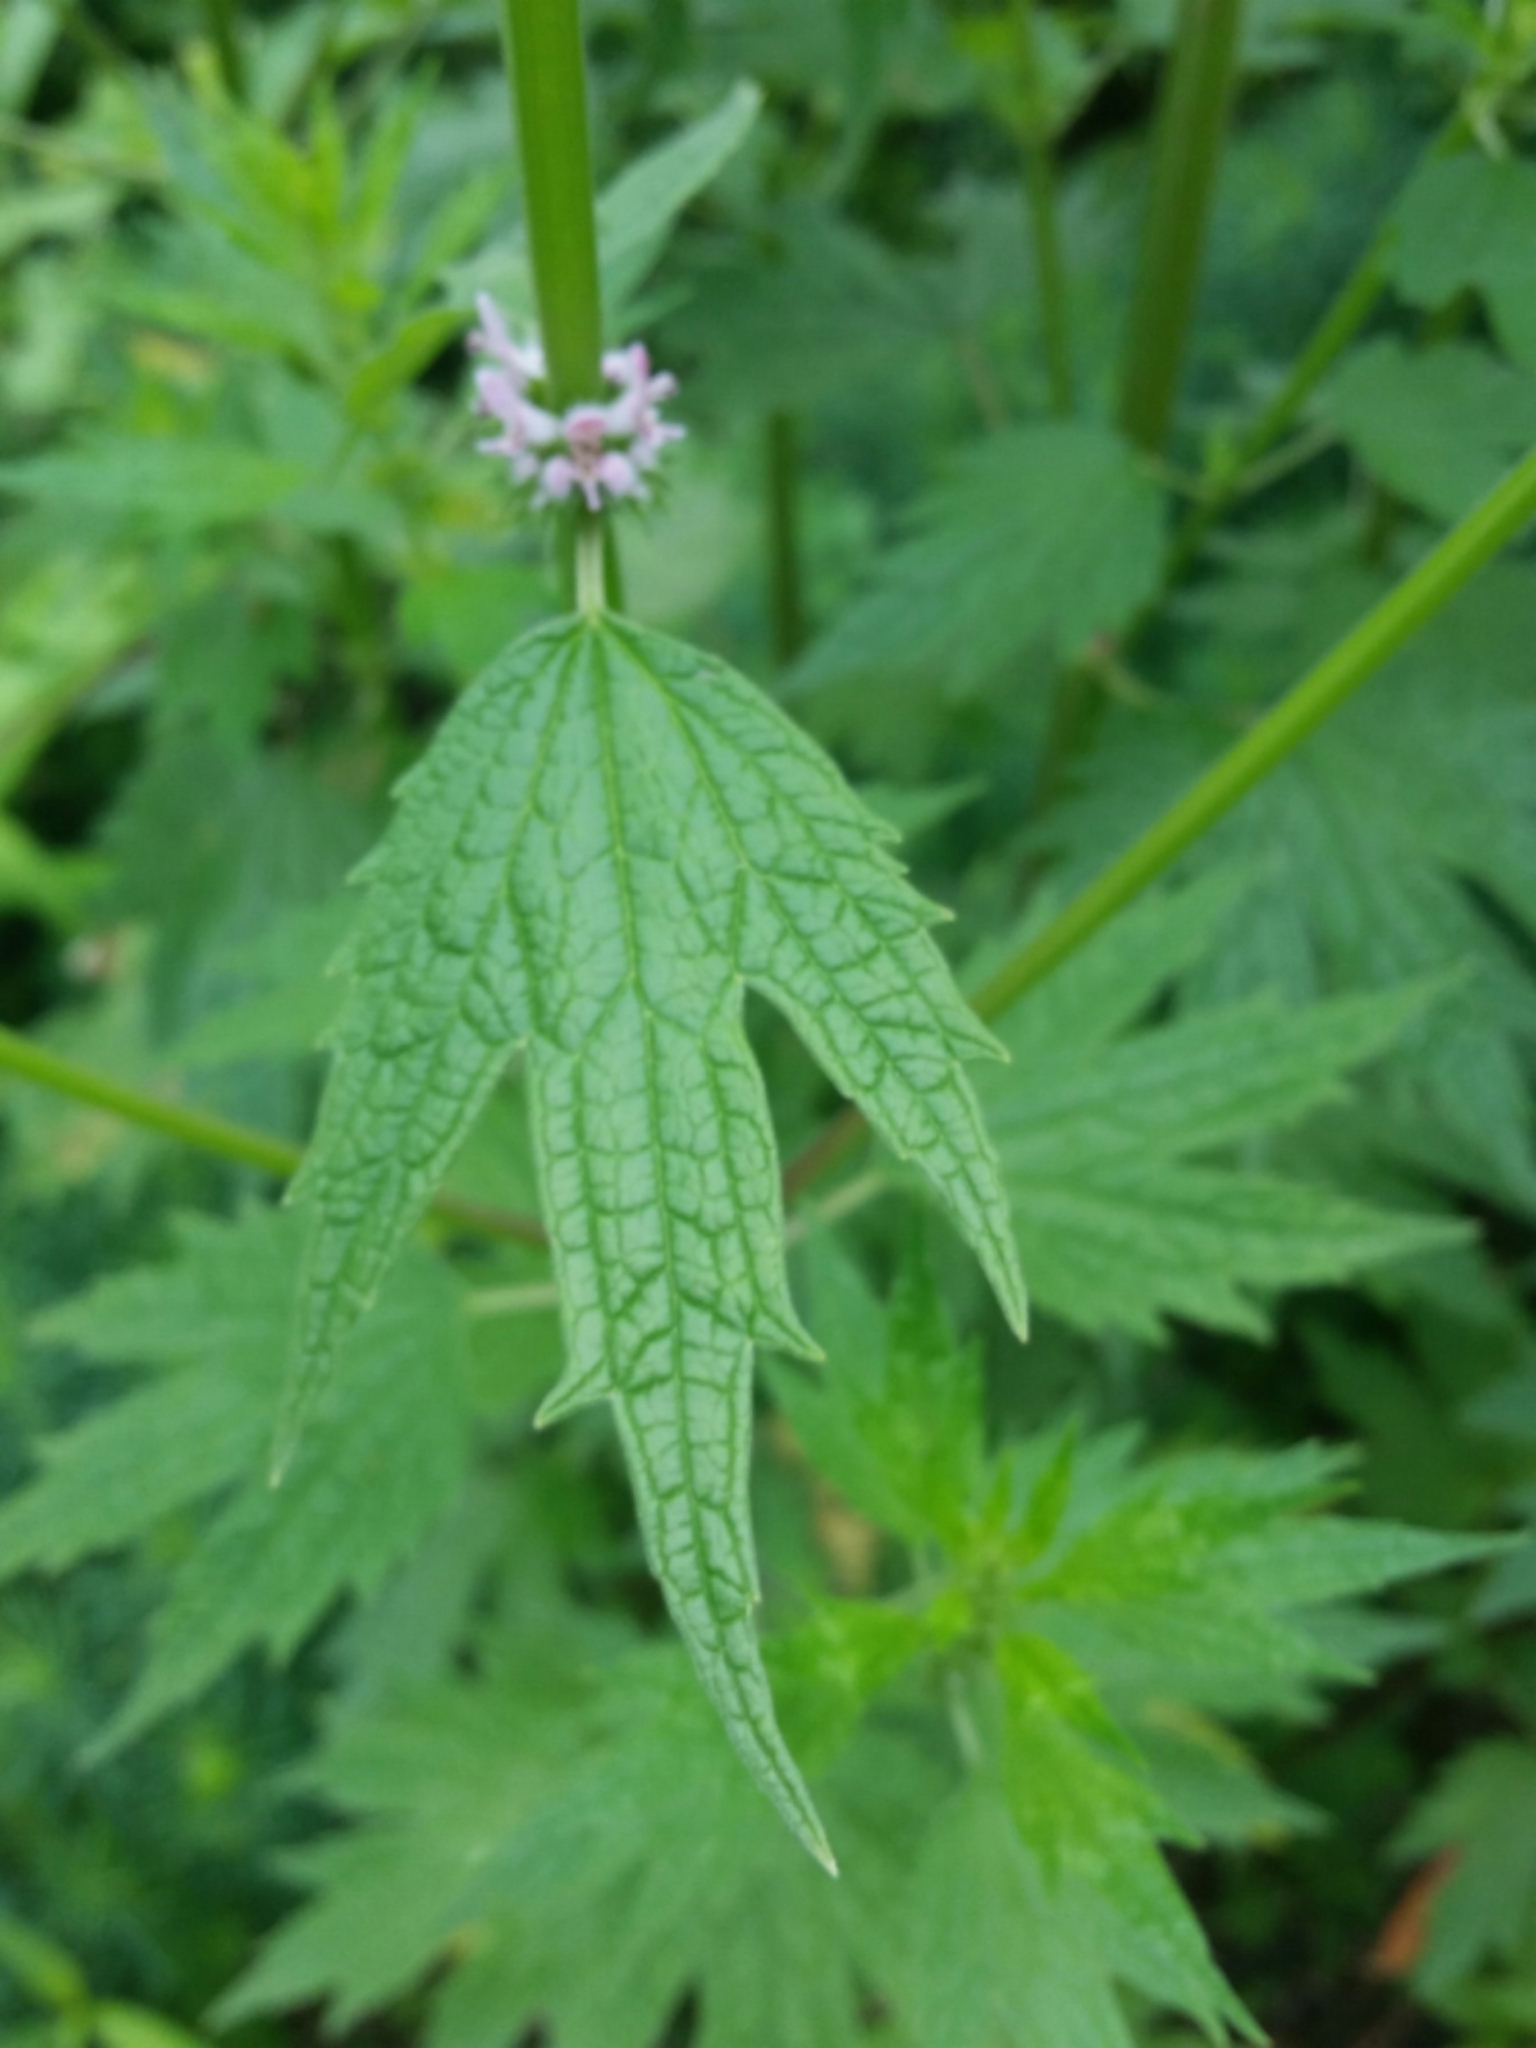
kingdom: Plantae
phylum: Tracheophyta
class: Magnoliopsida
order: Lamiales
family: Lamiaceae
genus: Leonurus
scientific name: Leonurus cardiaca
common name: Motherwort
